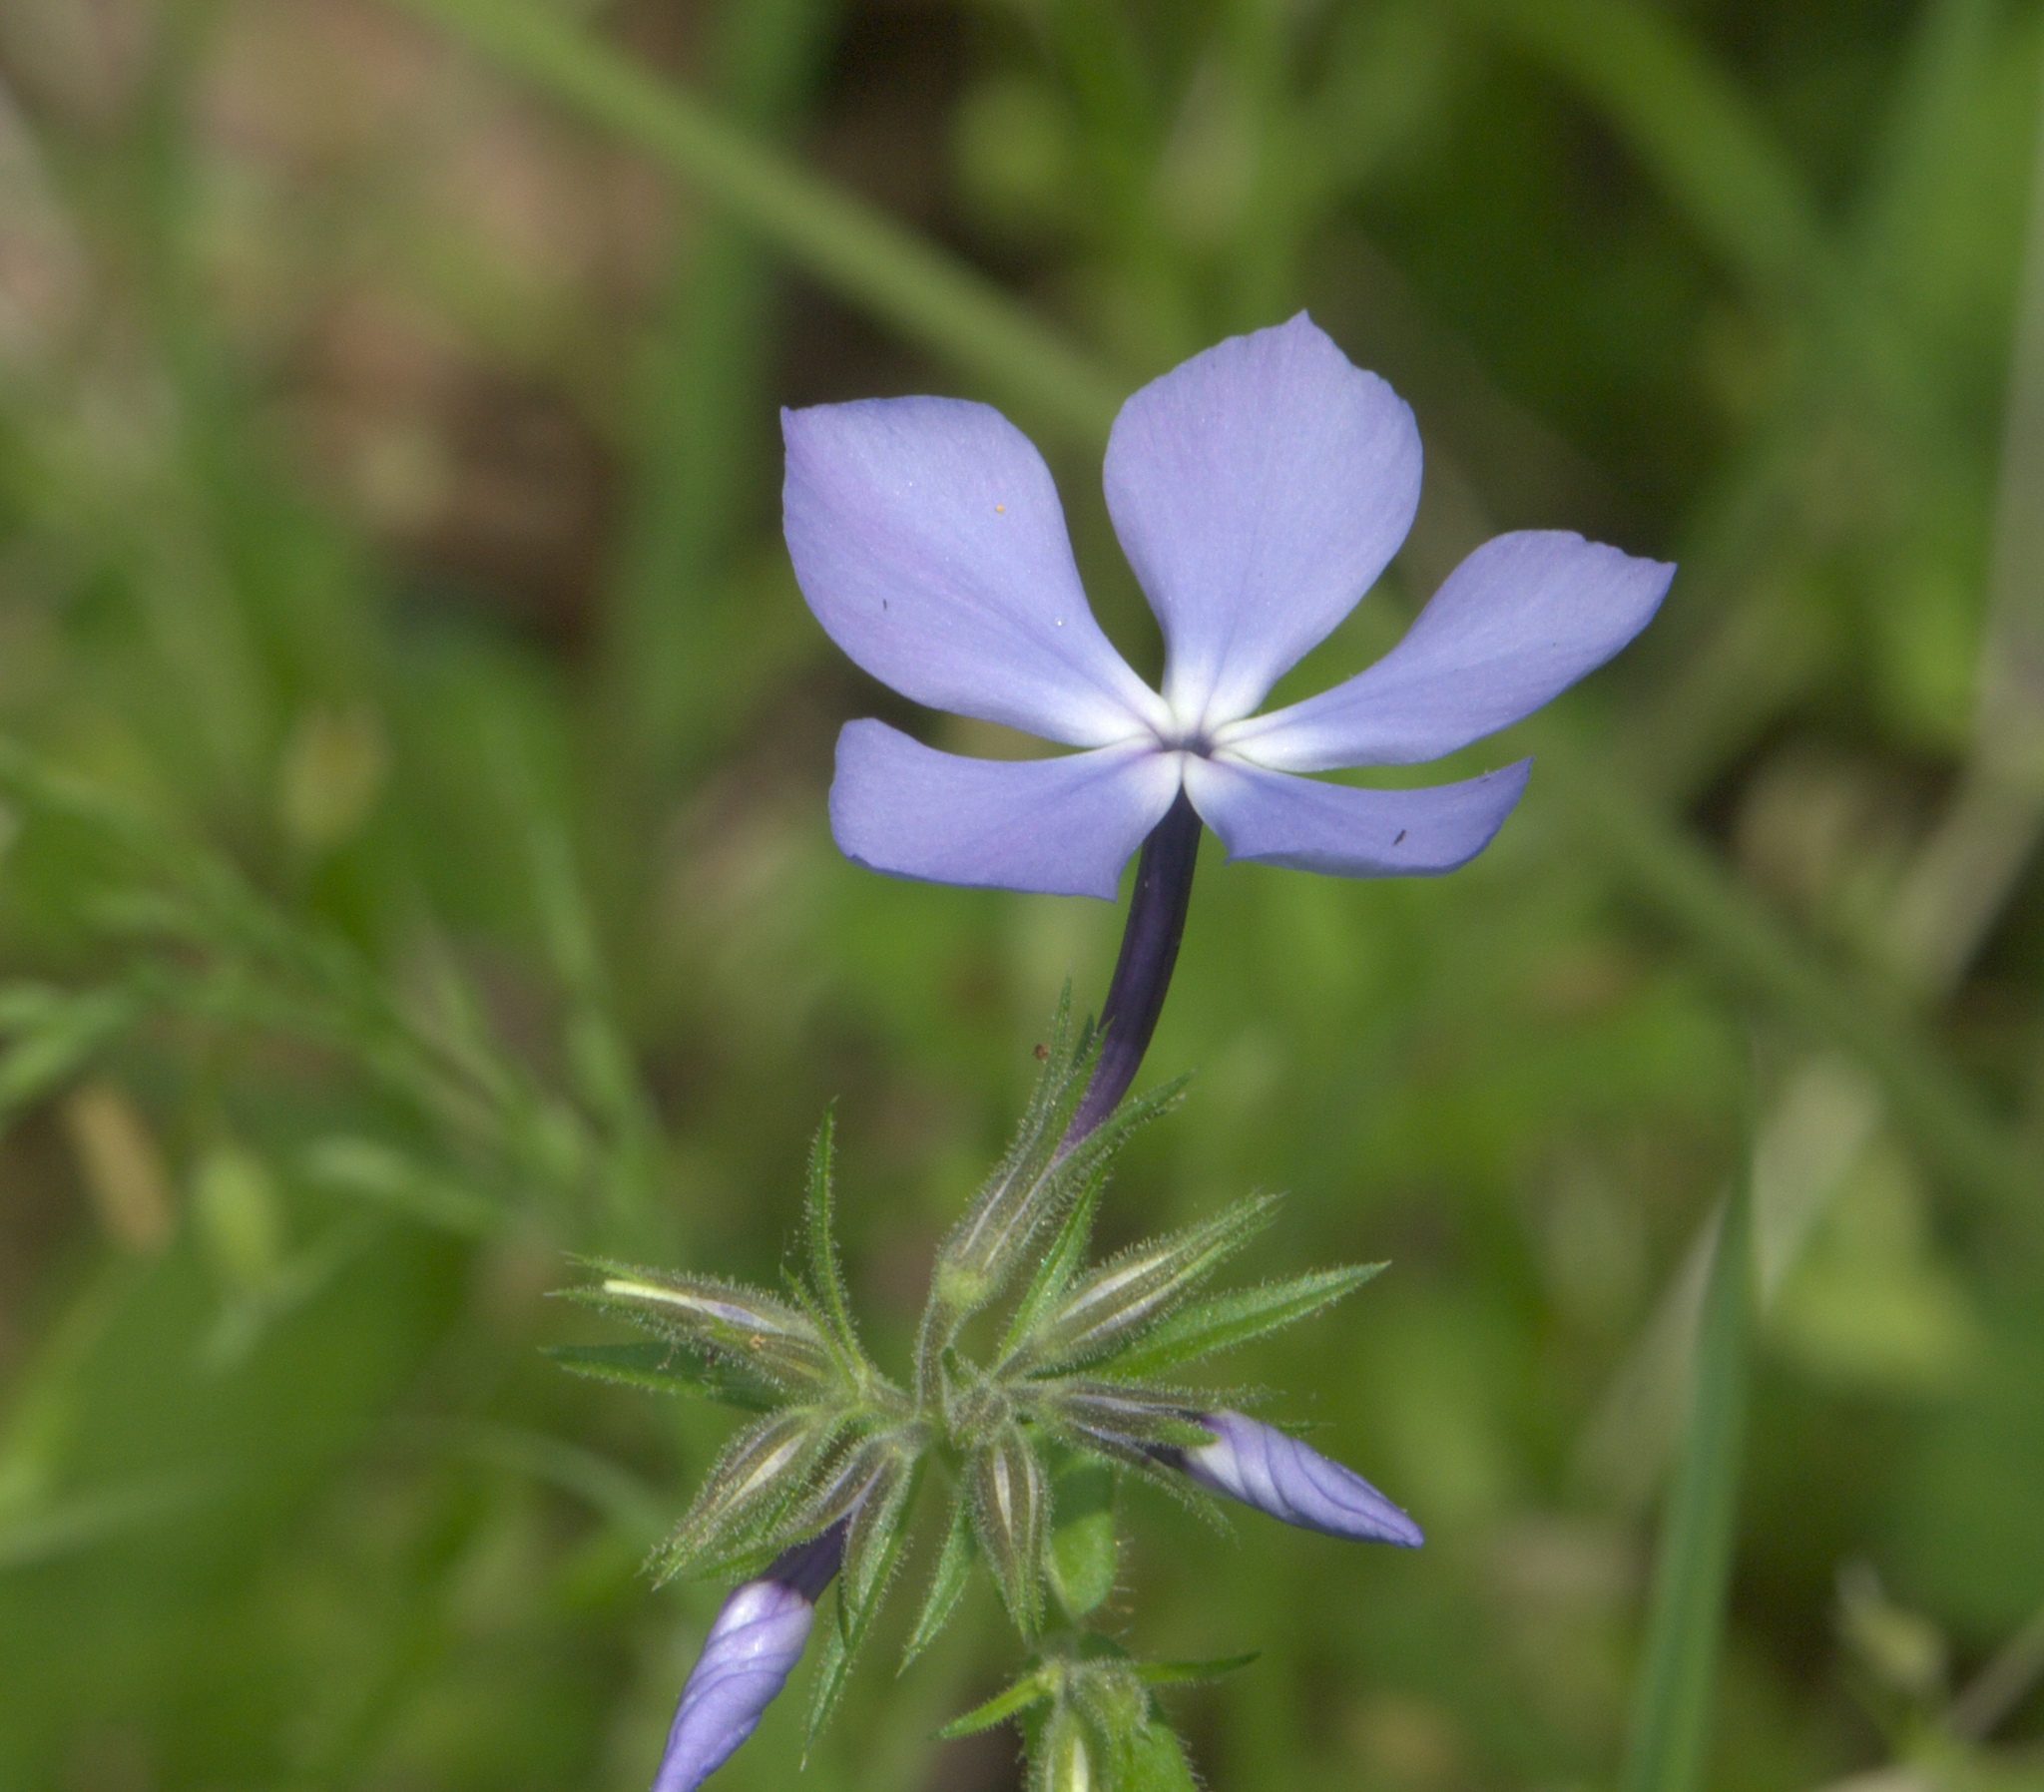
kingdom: Plantae
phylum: Tracheophyta
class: Magnoliopsida
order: Ericales
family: Polemoniaceae
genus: Phlox
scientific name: Phlox divaricata
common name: Blue phlox
